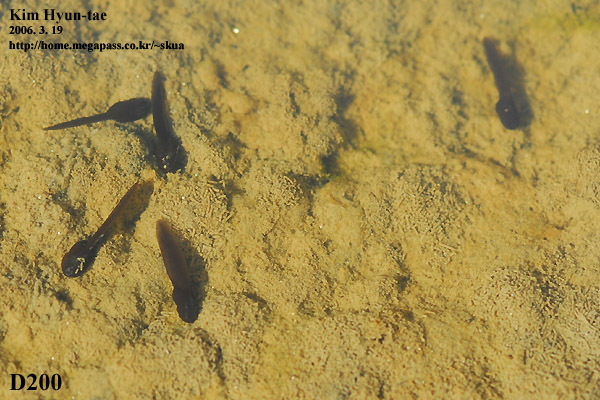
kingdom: Animalia
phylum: Chordata
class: Amphibia
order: Anura
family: Ranidae
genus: Rana
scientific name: Rana coreana
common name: Korean brown frog
